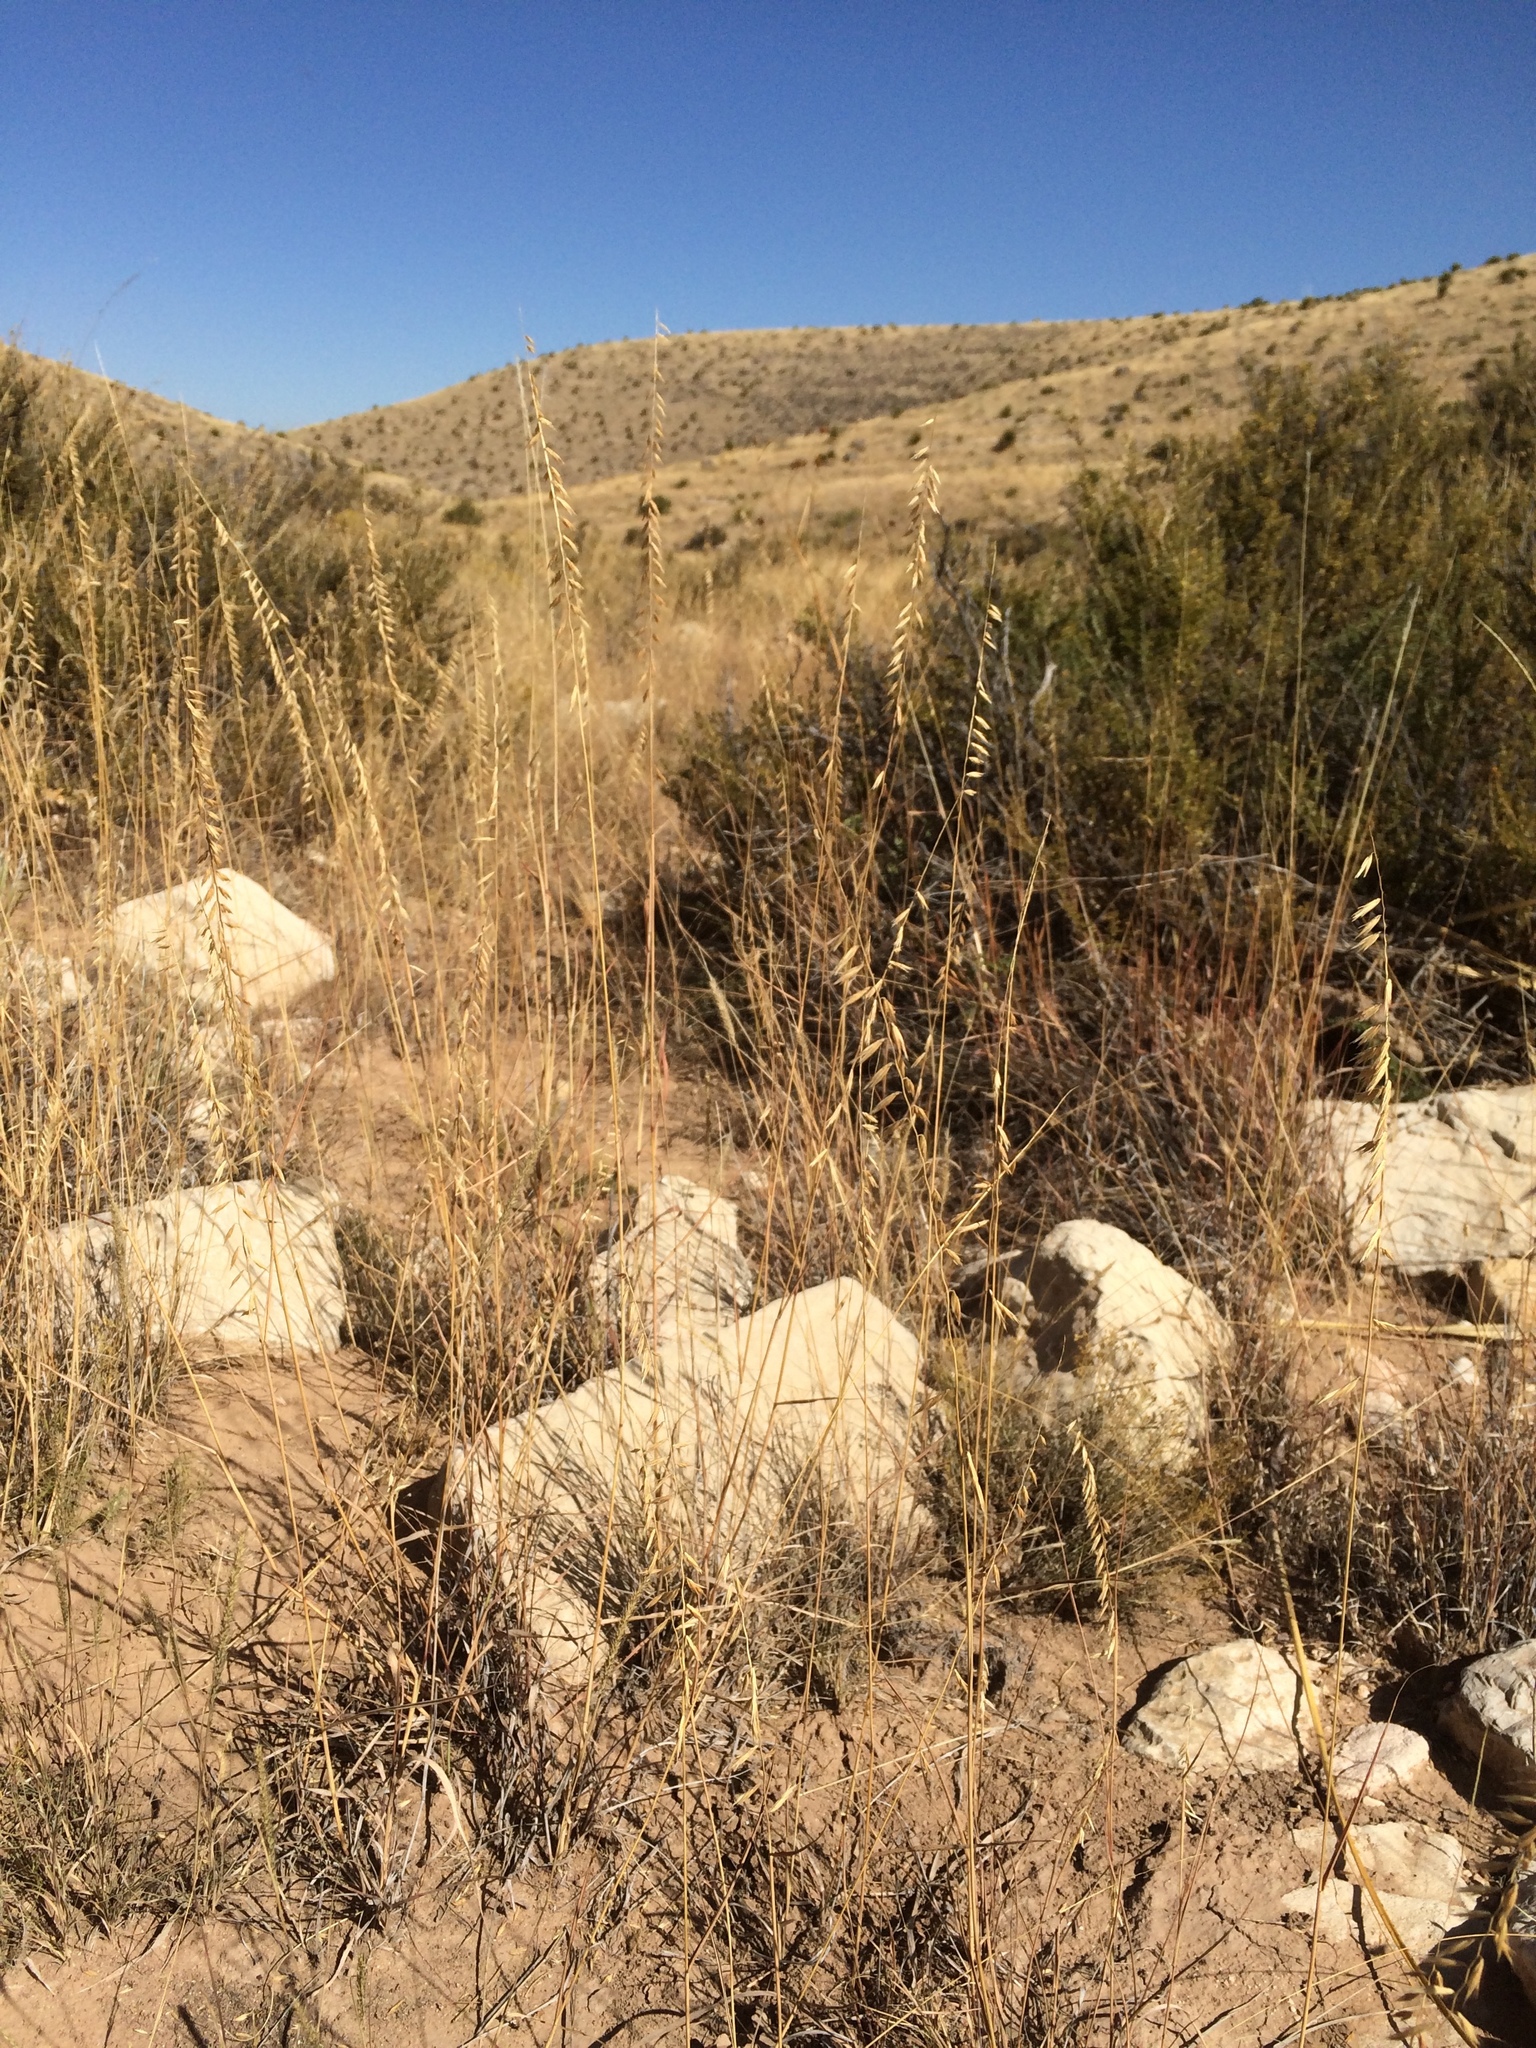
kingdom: Plantae
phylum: Tracheophyta
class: Liliopsida
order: Poales
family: Poaceae
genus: Bouteloua
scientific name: Bouteloua curtipendula
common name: Side-oats grama
